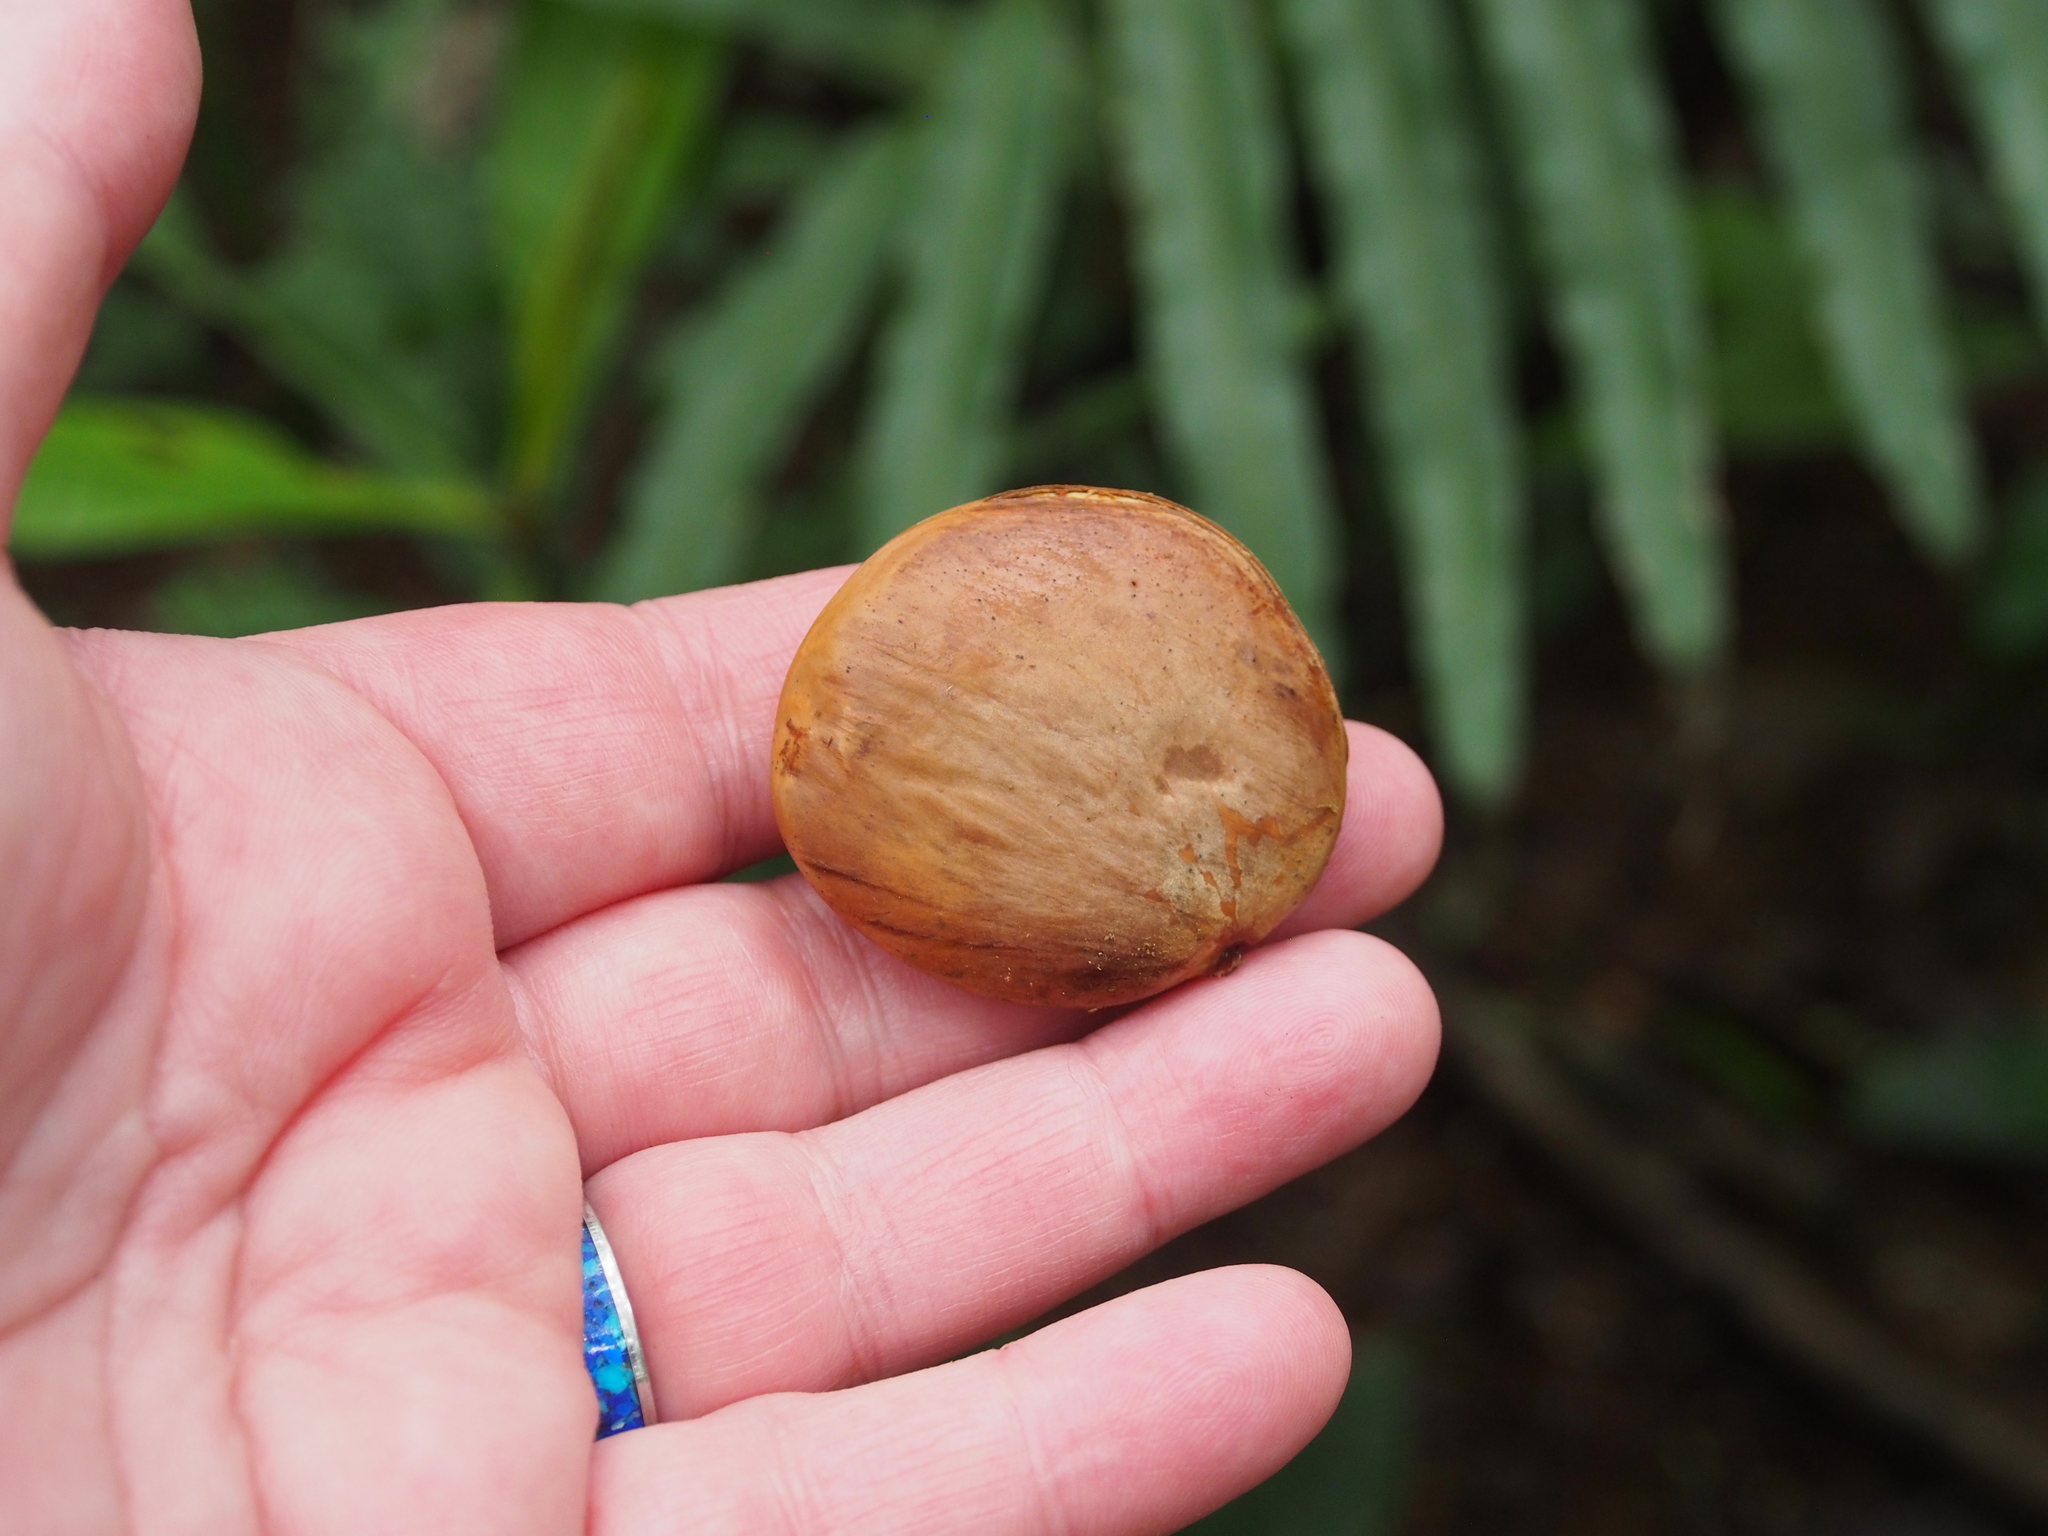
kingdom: Plantae
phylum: Tracheophyta
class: Magnoliopsida
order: Fabales
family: Fabaceae
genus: Pentaclethra
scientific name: Pentaclethra macroloba
